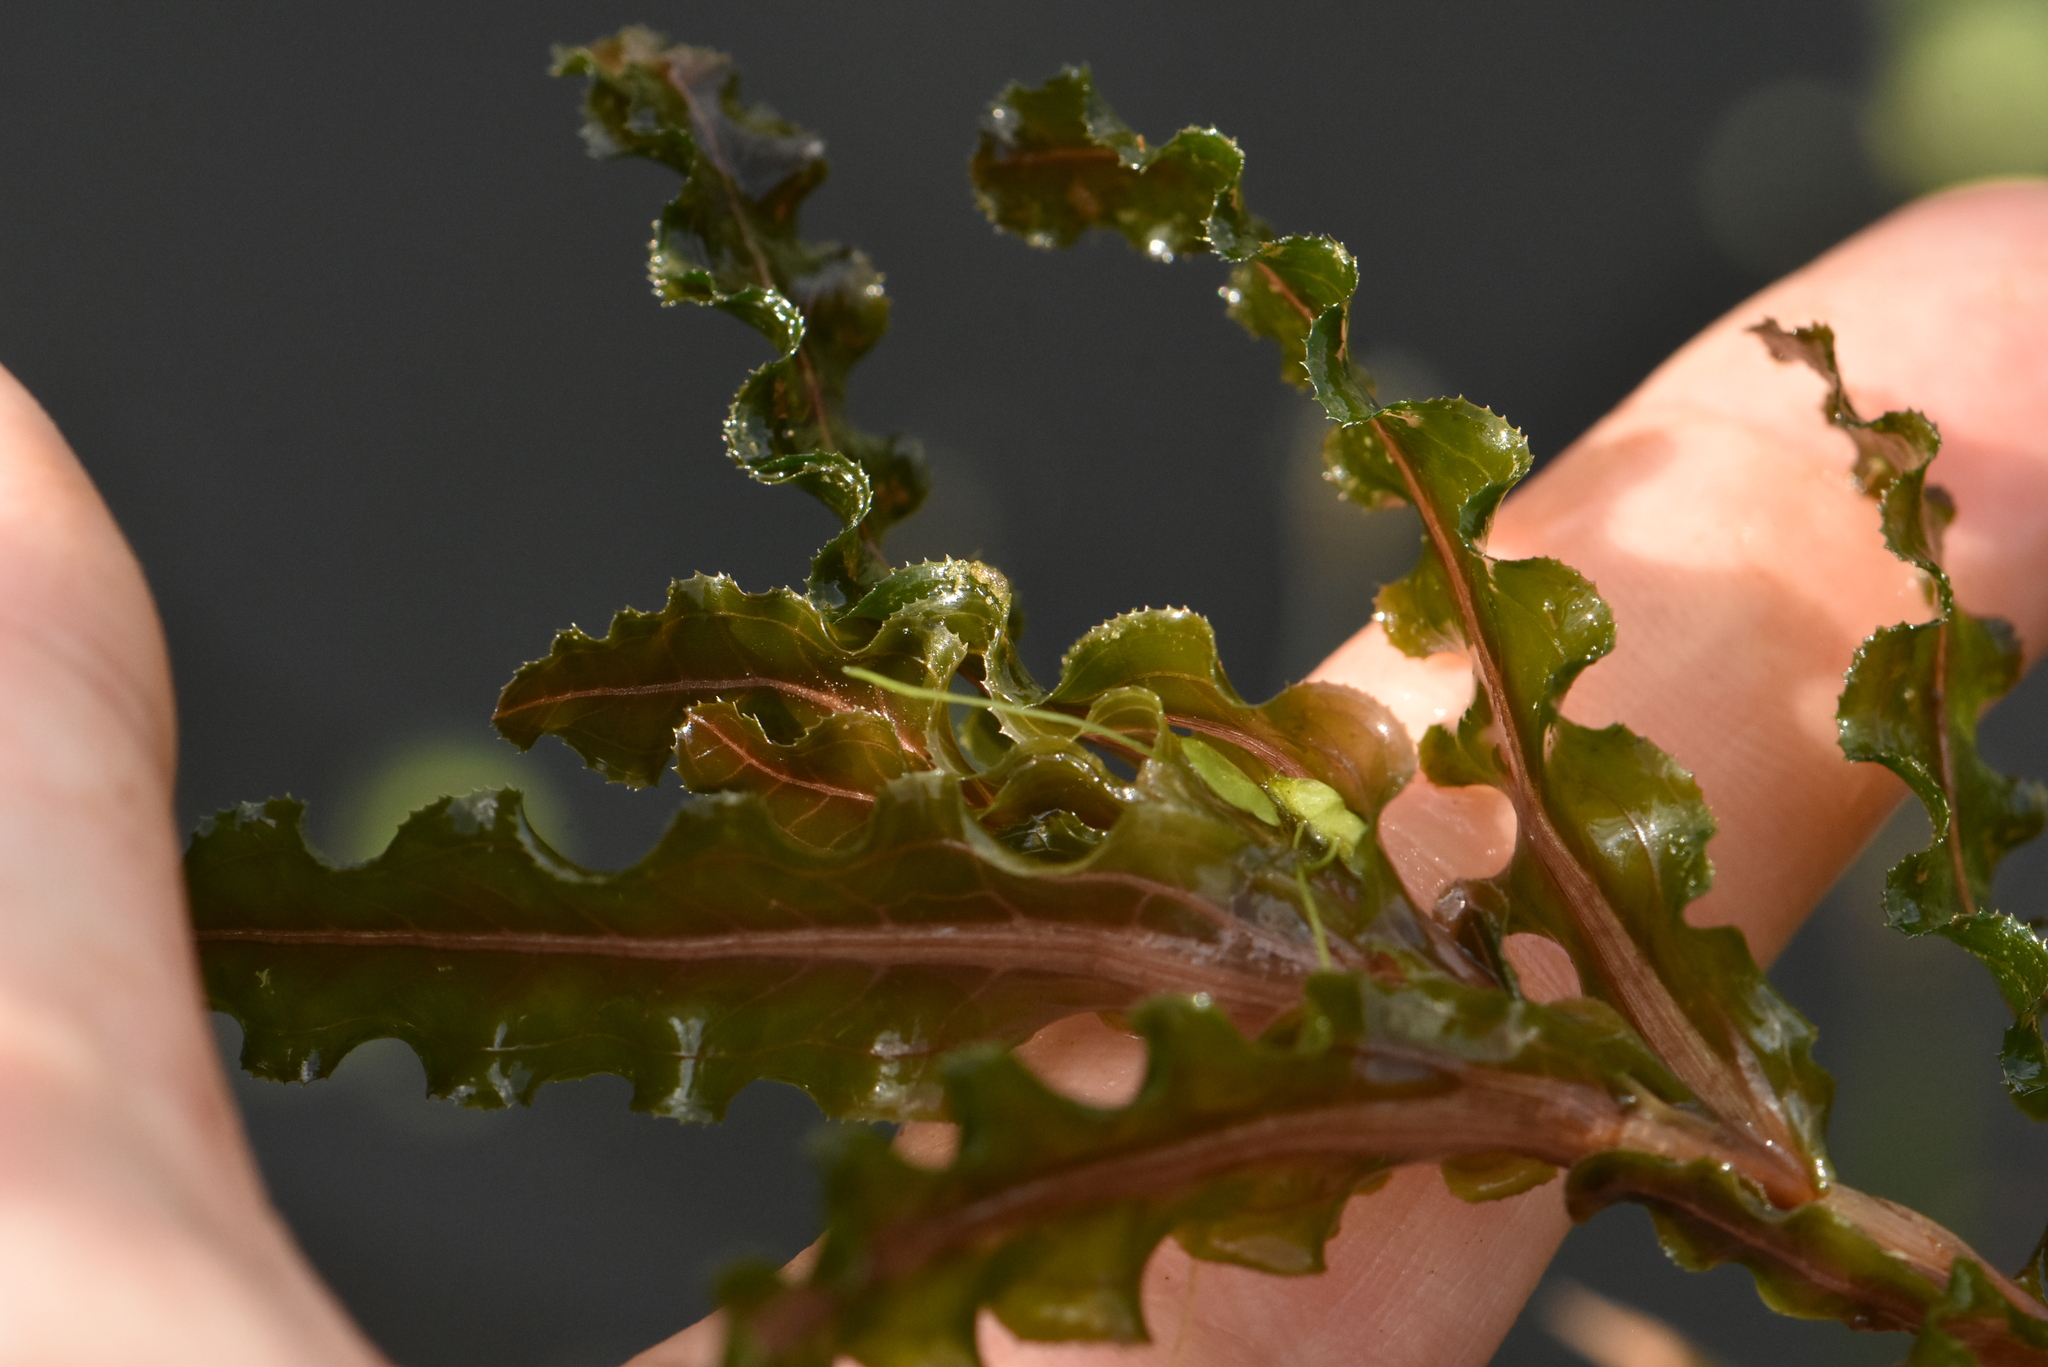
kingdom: Plantae
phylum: Tracheophyta
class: Liliopsida
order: Alismatales
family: Potamogetonaceae
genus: Potamogeton
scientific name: Potamogeton crispus
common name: Curled pondweed
